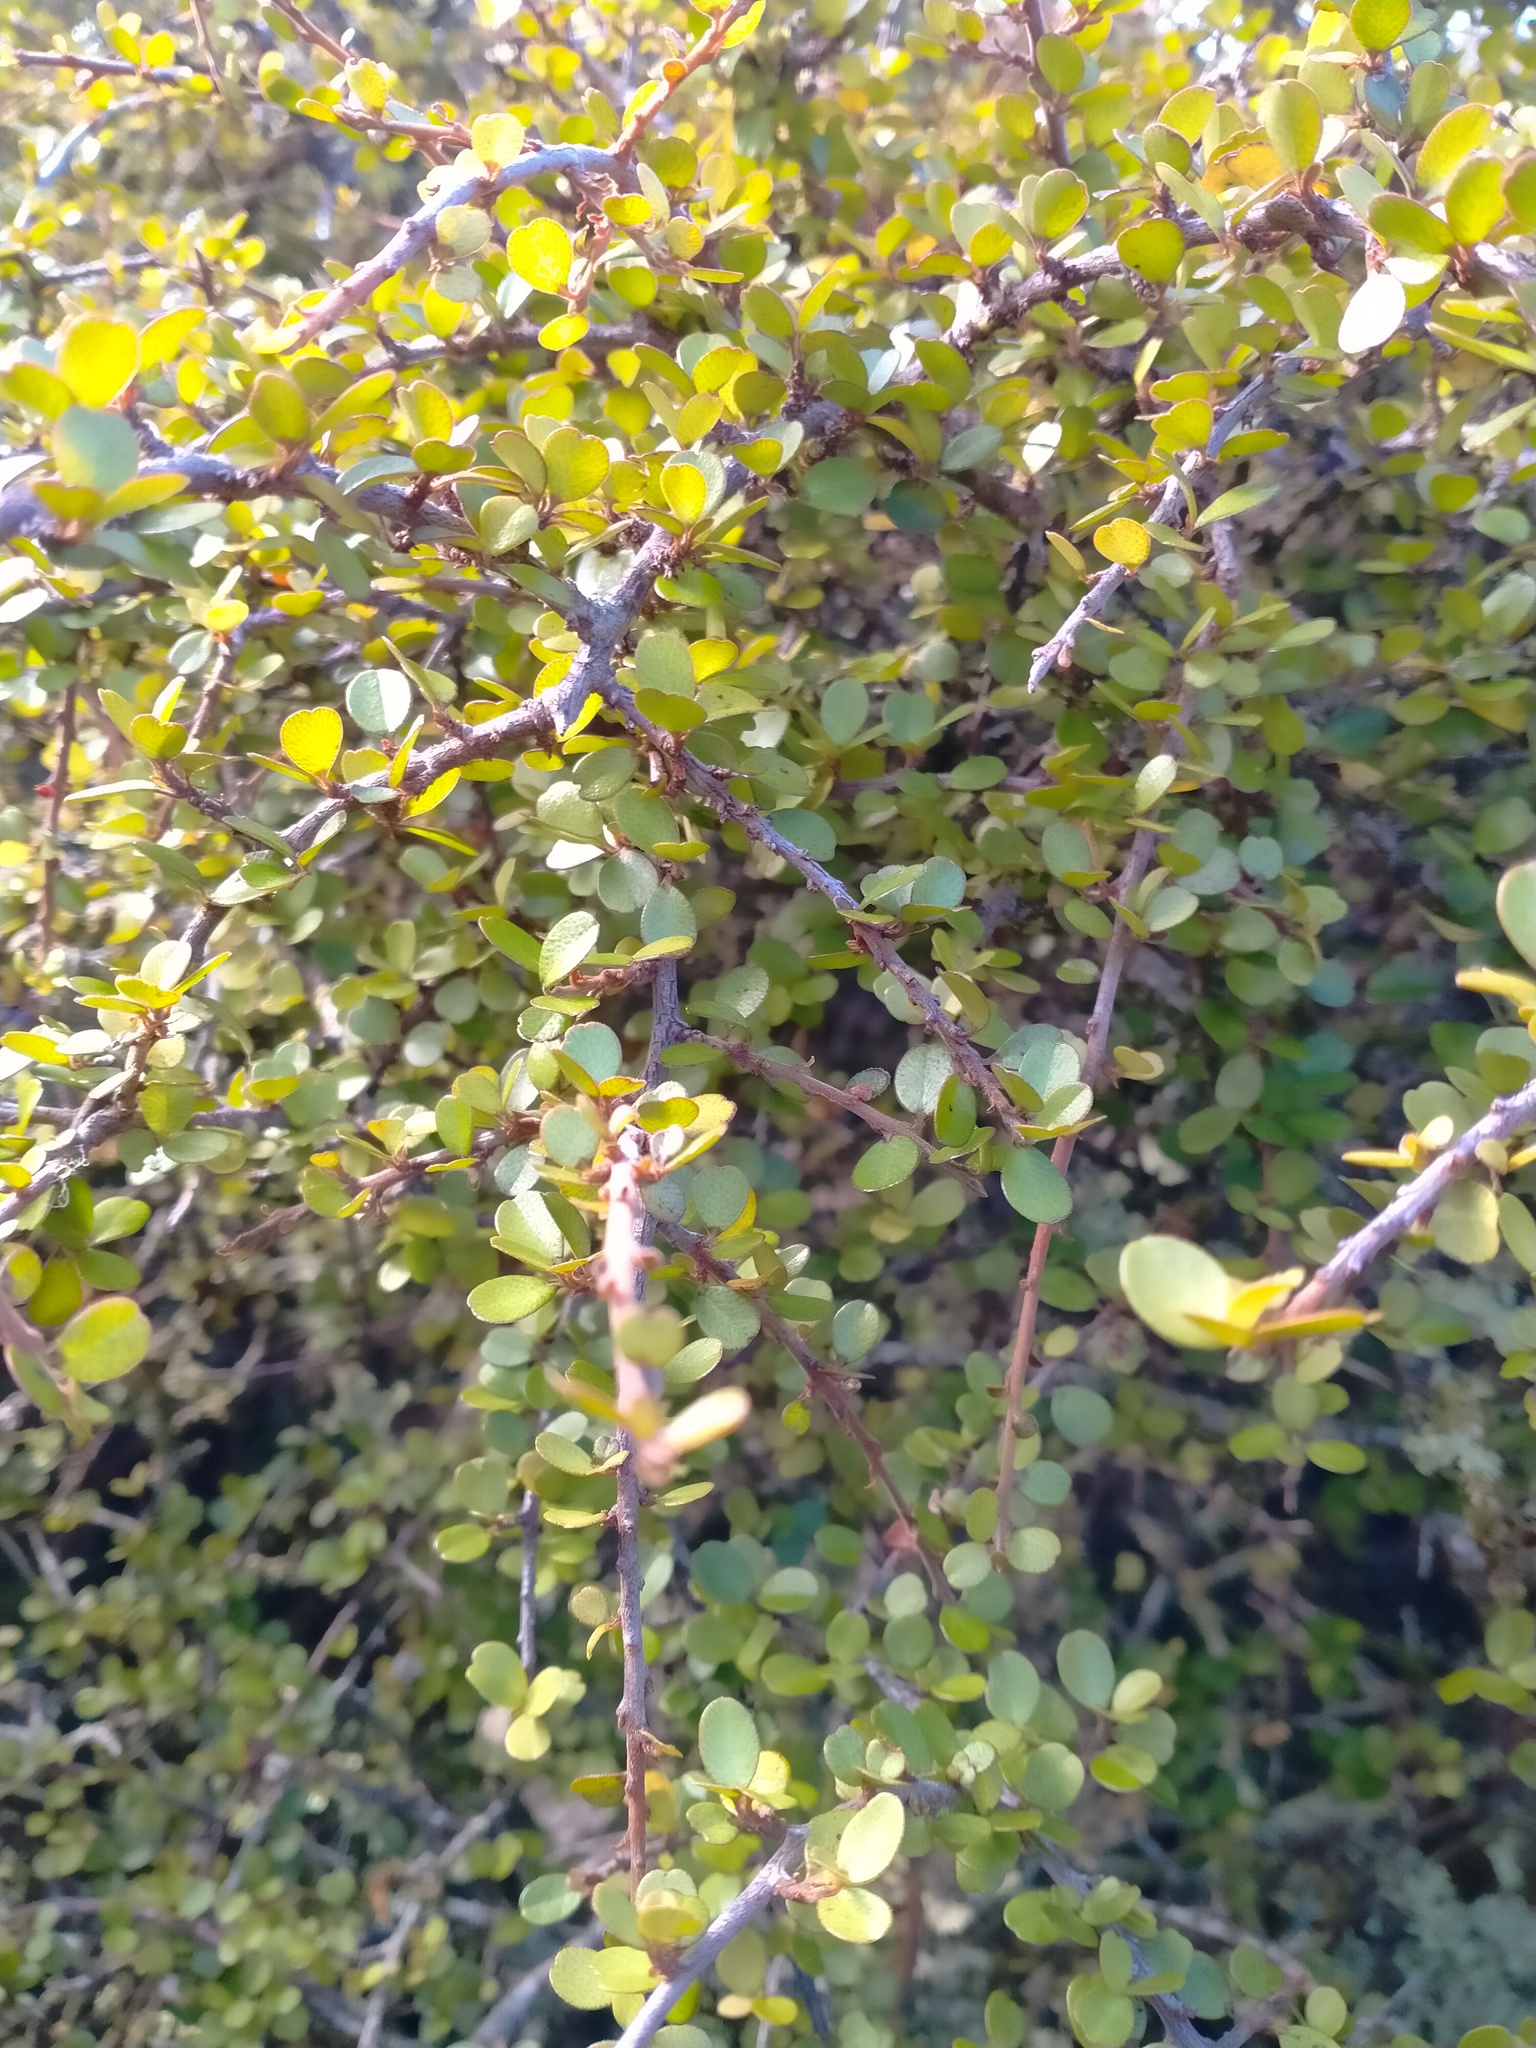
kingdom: Plantae
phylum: Tracheophyta
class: Magnoliopsida
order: Ericales
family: Primulaceae
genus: Myrsine
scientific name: Myrsine divaricata
